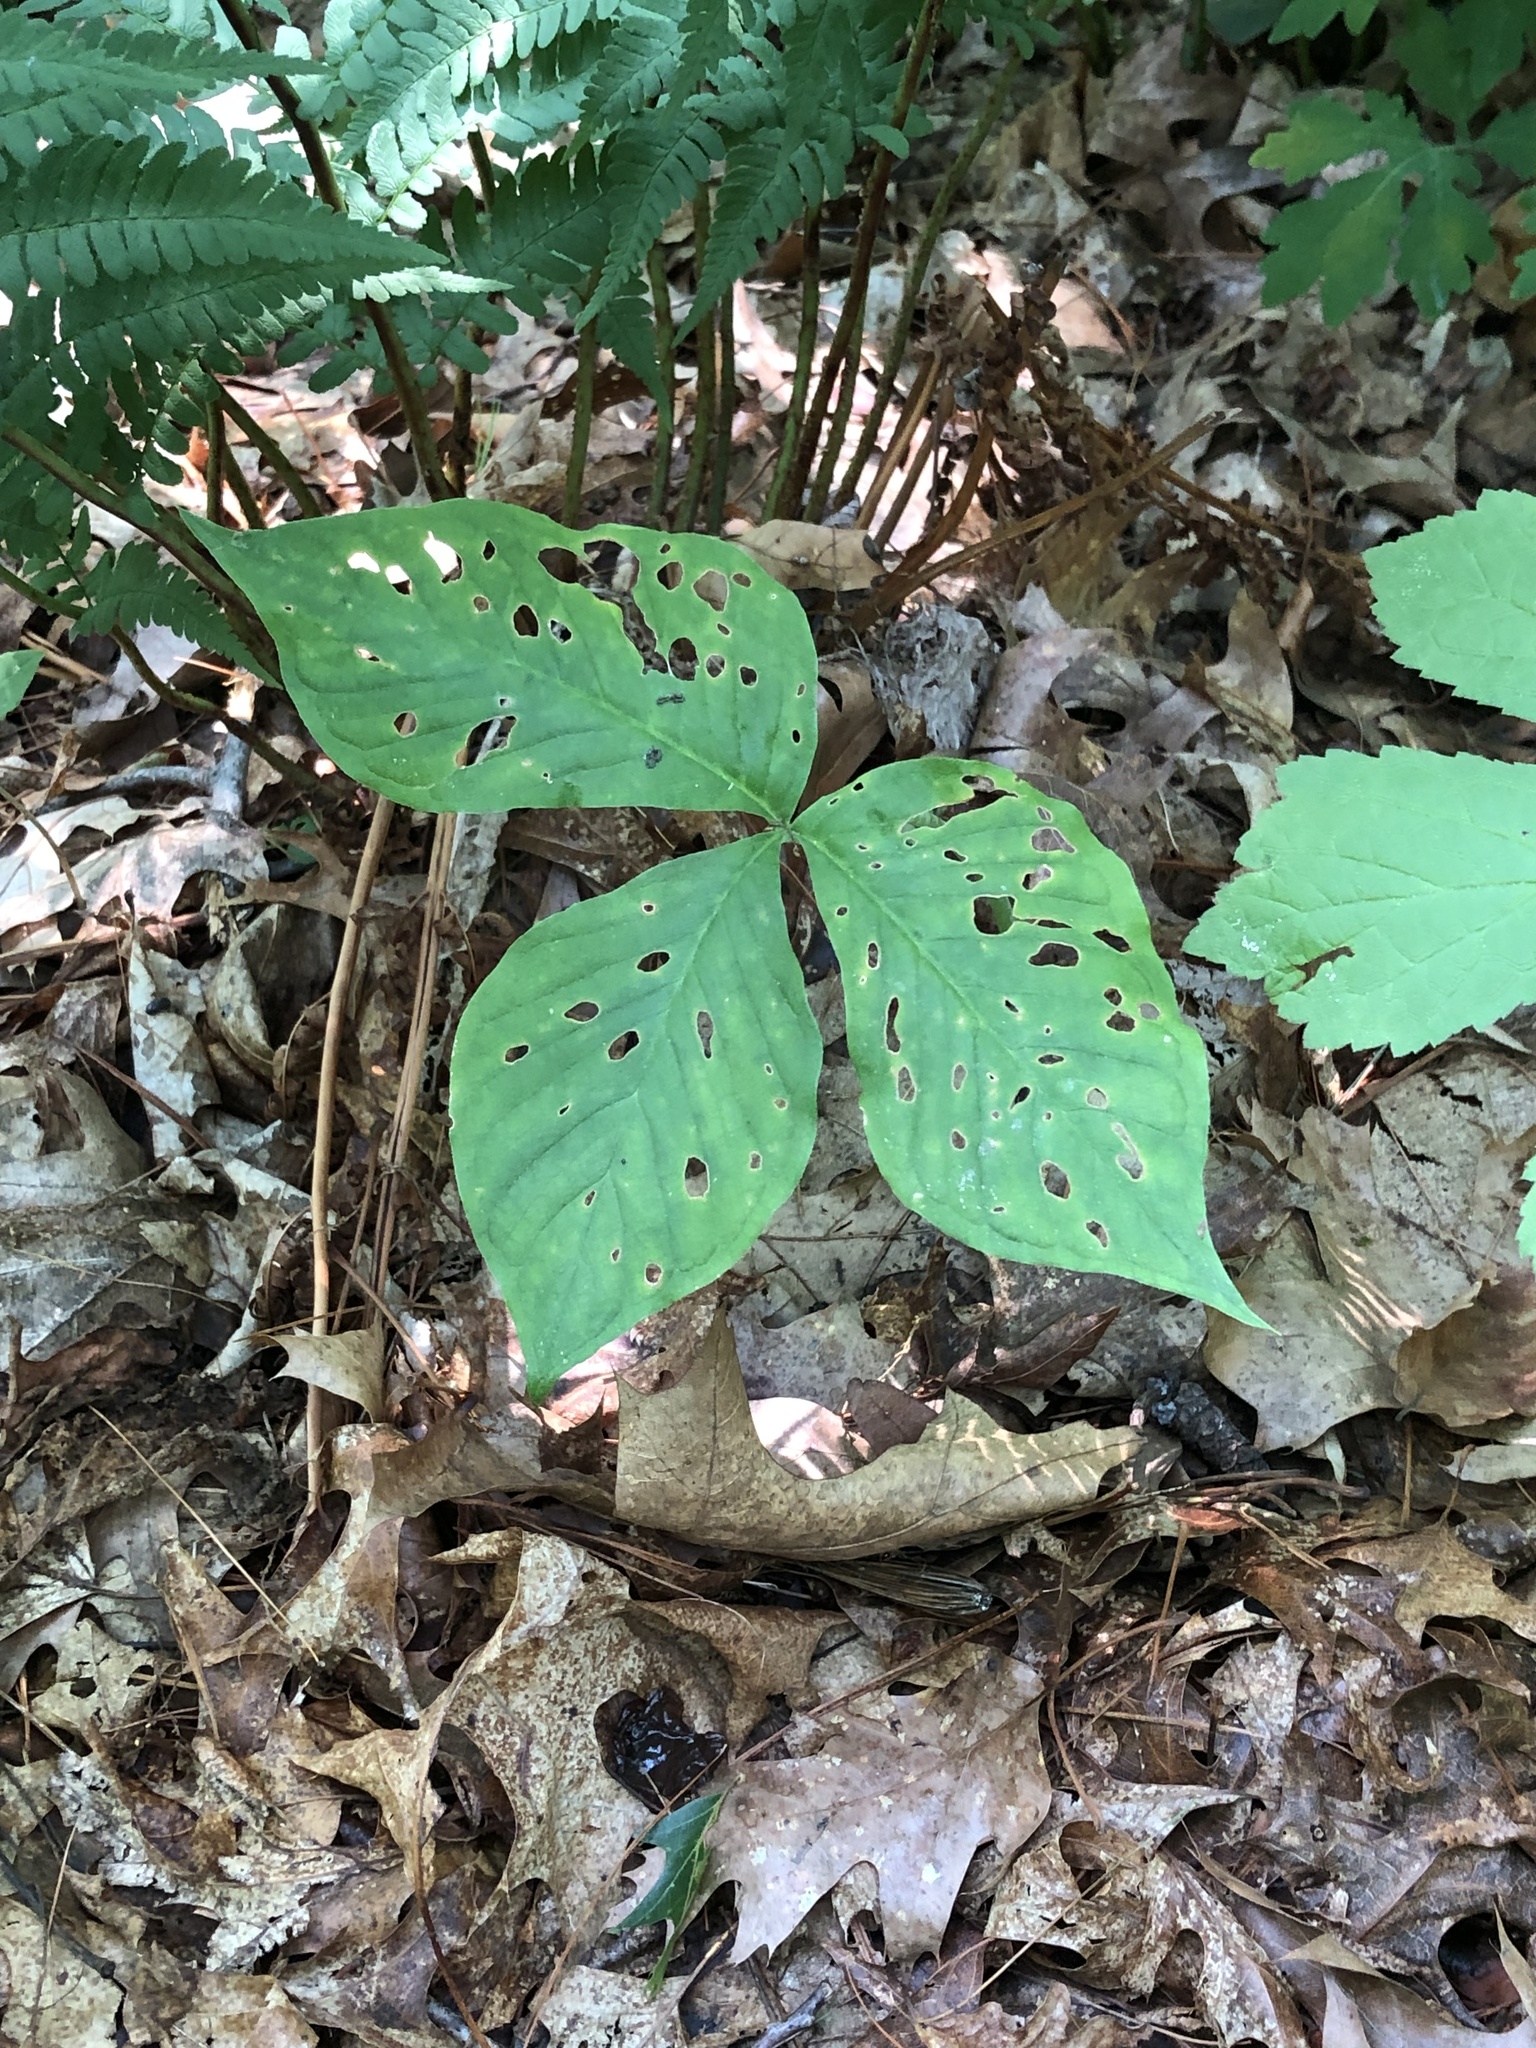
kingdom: Plantae
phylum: Tracheophyta
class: Liliopsida
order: Alismatales
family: Araceae
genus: Arisaema
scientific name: Arisaema triphyllum
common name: Jack-in-the-pulpit
